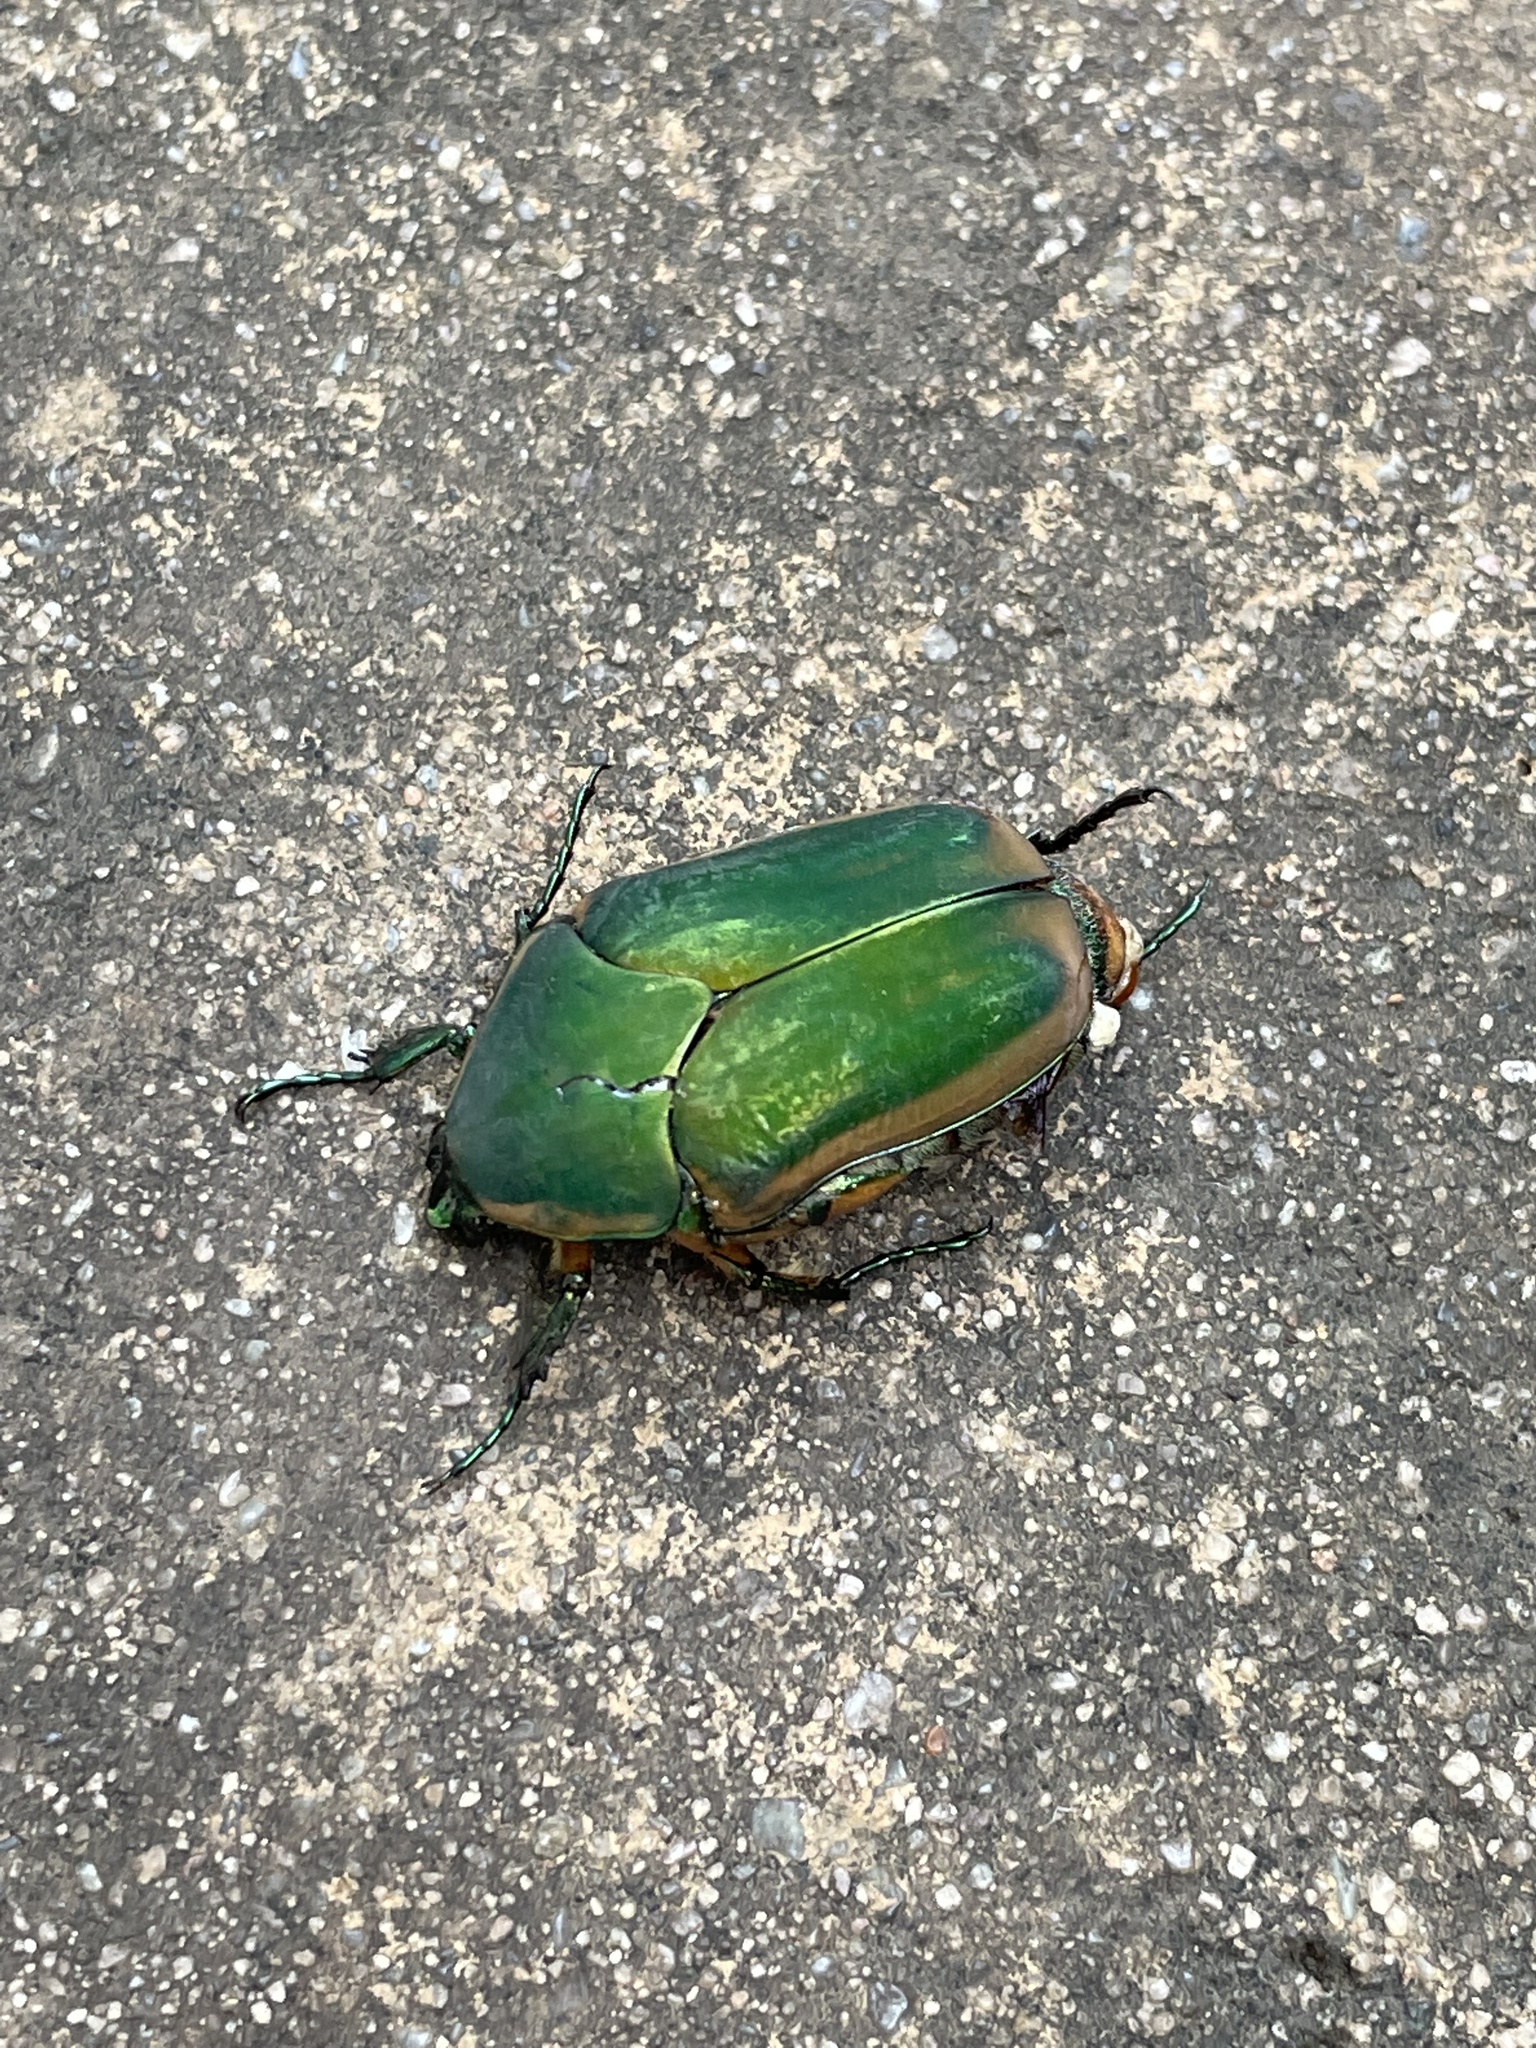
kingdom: Animalia
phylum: Arthropoda
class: Insecta
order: Coleoptera
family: Scarabaeidae
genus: Cotinis
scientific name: Cotinis nitida
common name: Common green june beetle
